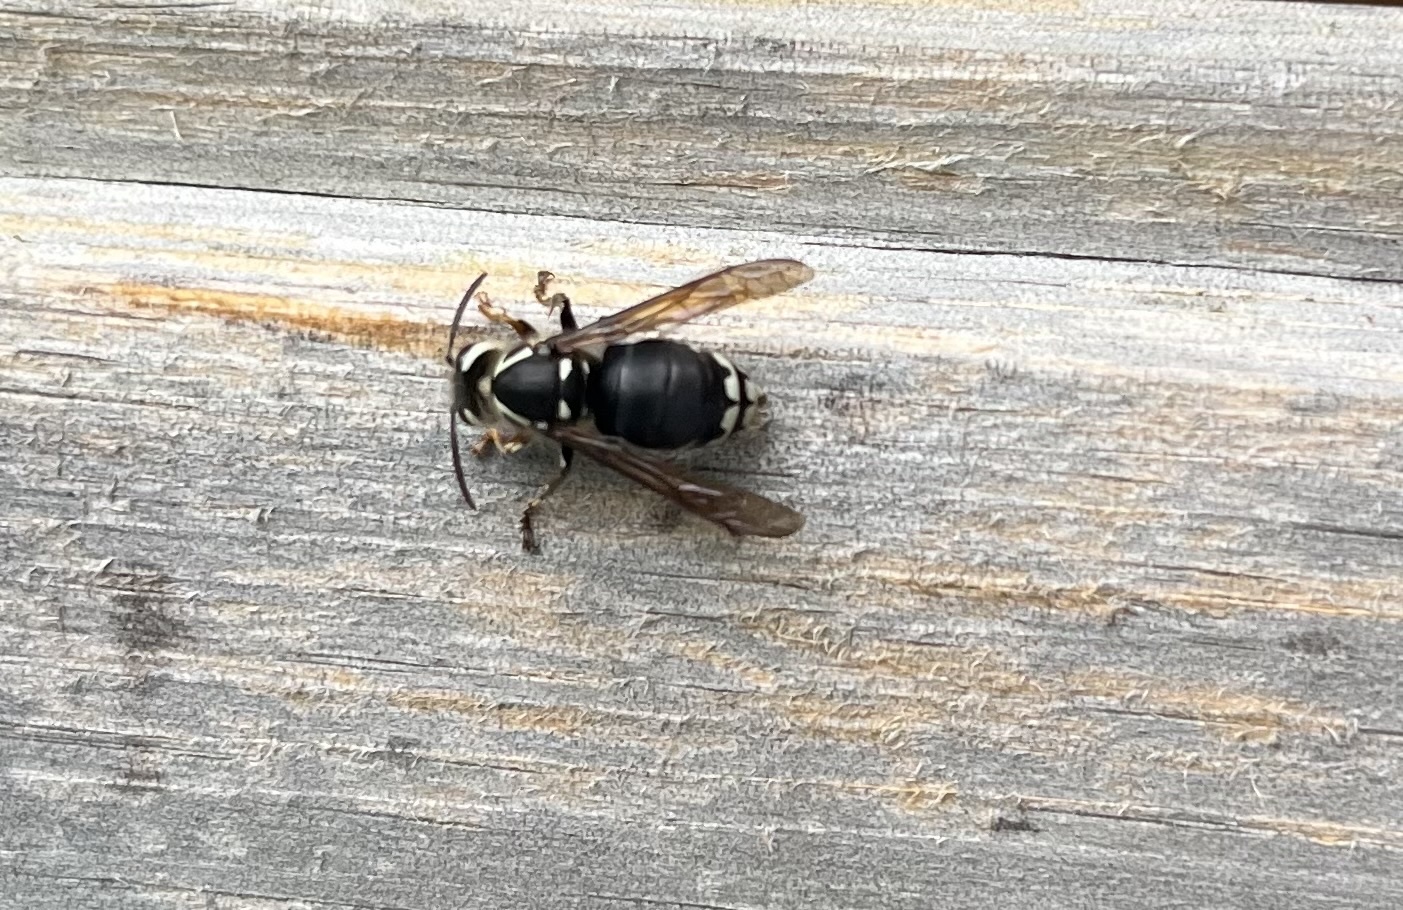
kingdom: Animalia
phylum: Arthropoda
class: Insecta
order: Hymenoptera
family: Vespidae
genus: Dolichovespula
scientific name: Dolichovespula maculata
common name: Bald-faced hornet
